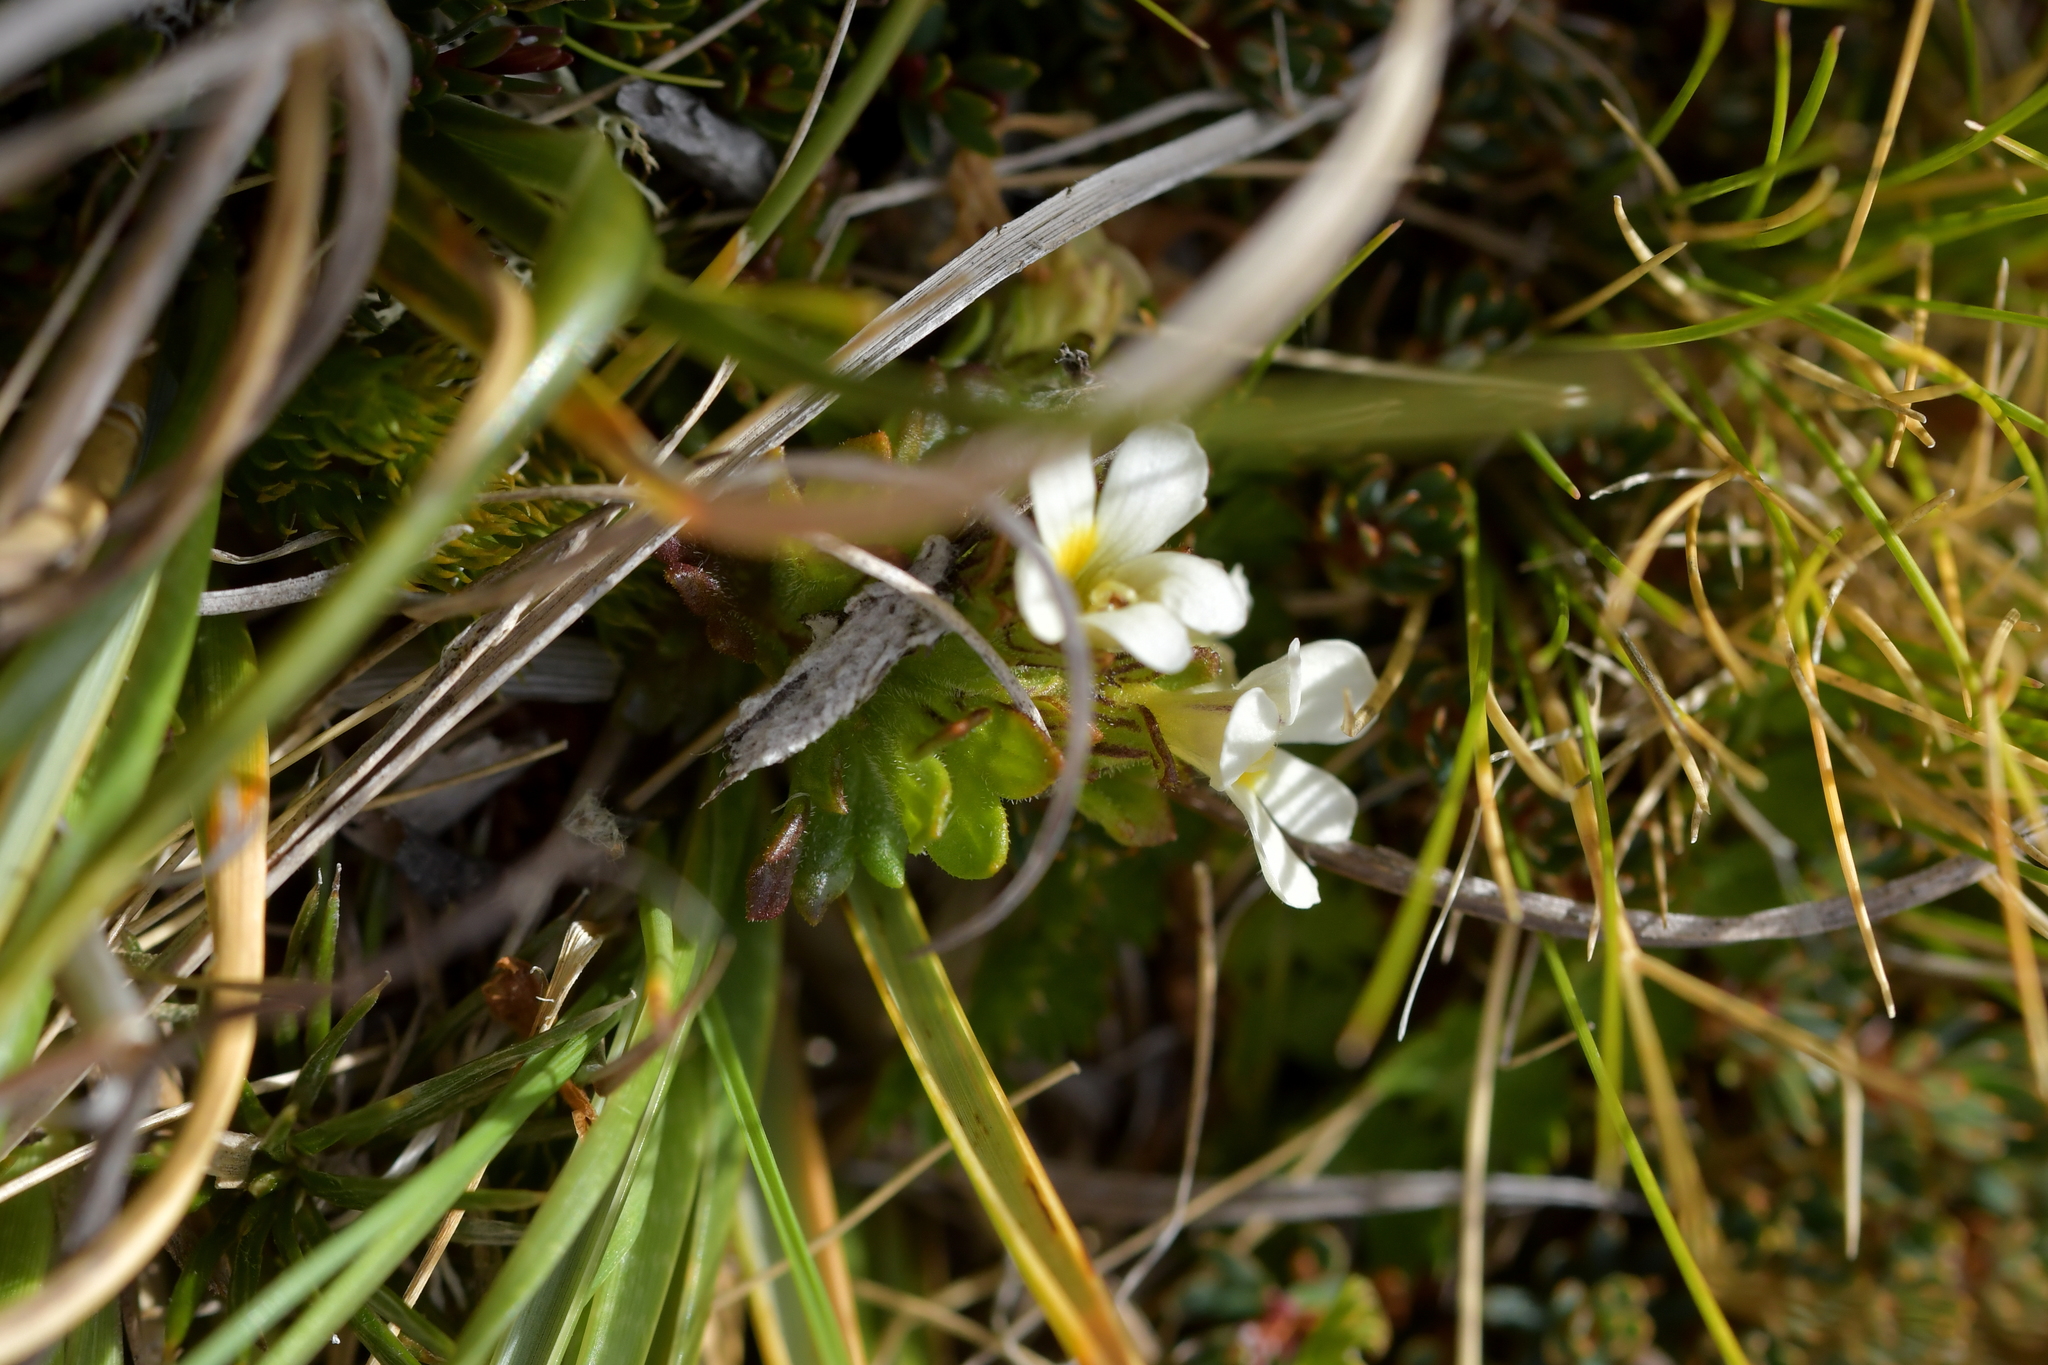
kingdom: Plantae
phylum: Tracheophyta
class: Magnoliopsida
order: Lamiales
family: Orobanchaceae
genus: Euphrasia
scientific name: Euphrasia zelandica
